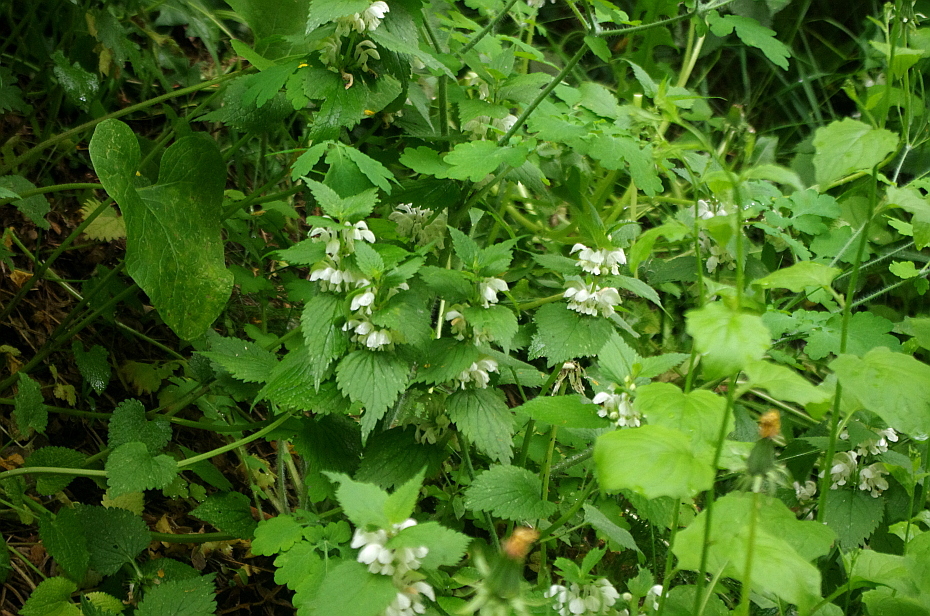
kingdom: Plantae
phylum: Tracheophyta
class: Magnoliopsida
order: Lamiales
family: Lamiaceae
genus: Lamium
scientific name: Lamium album
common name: White dead-nettle
